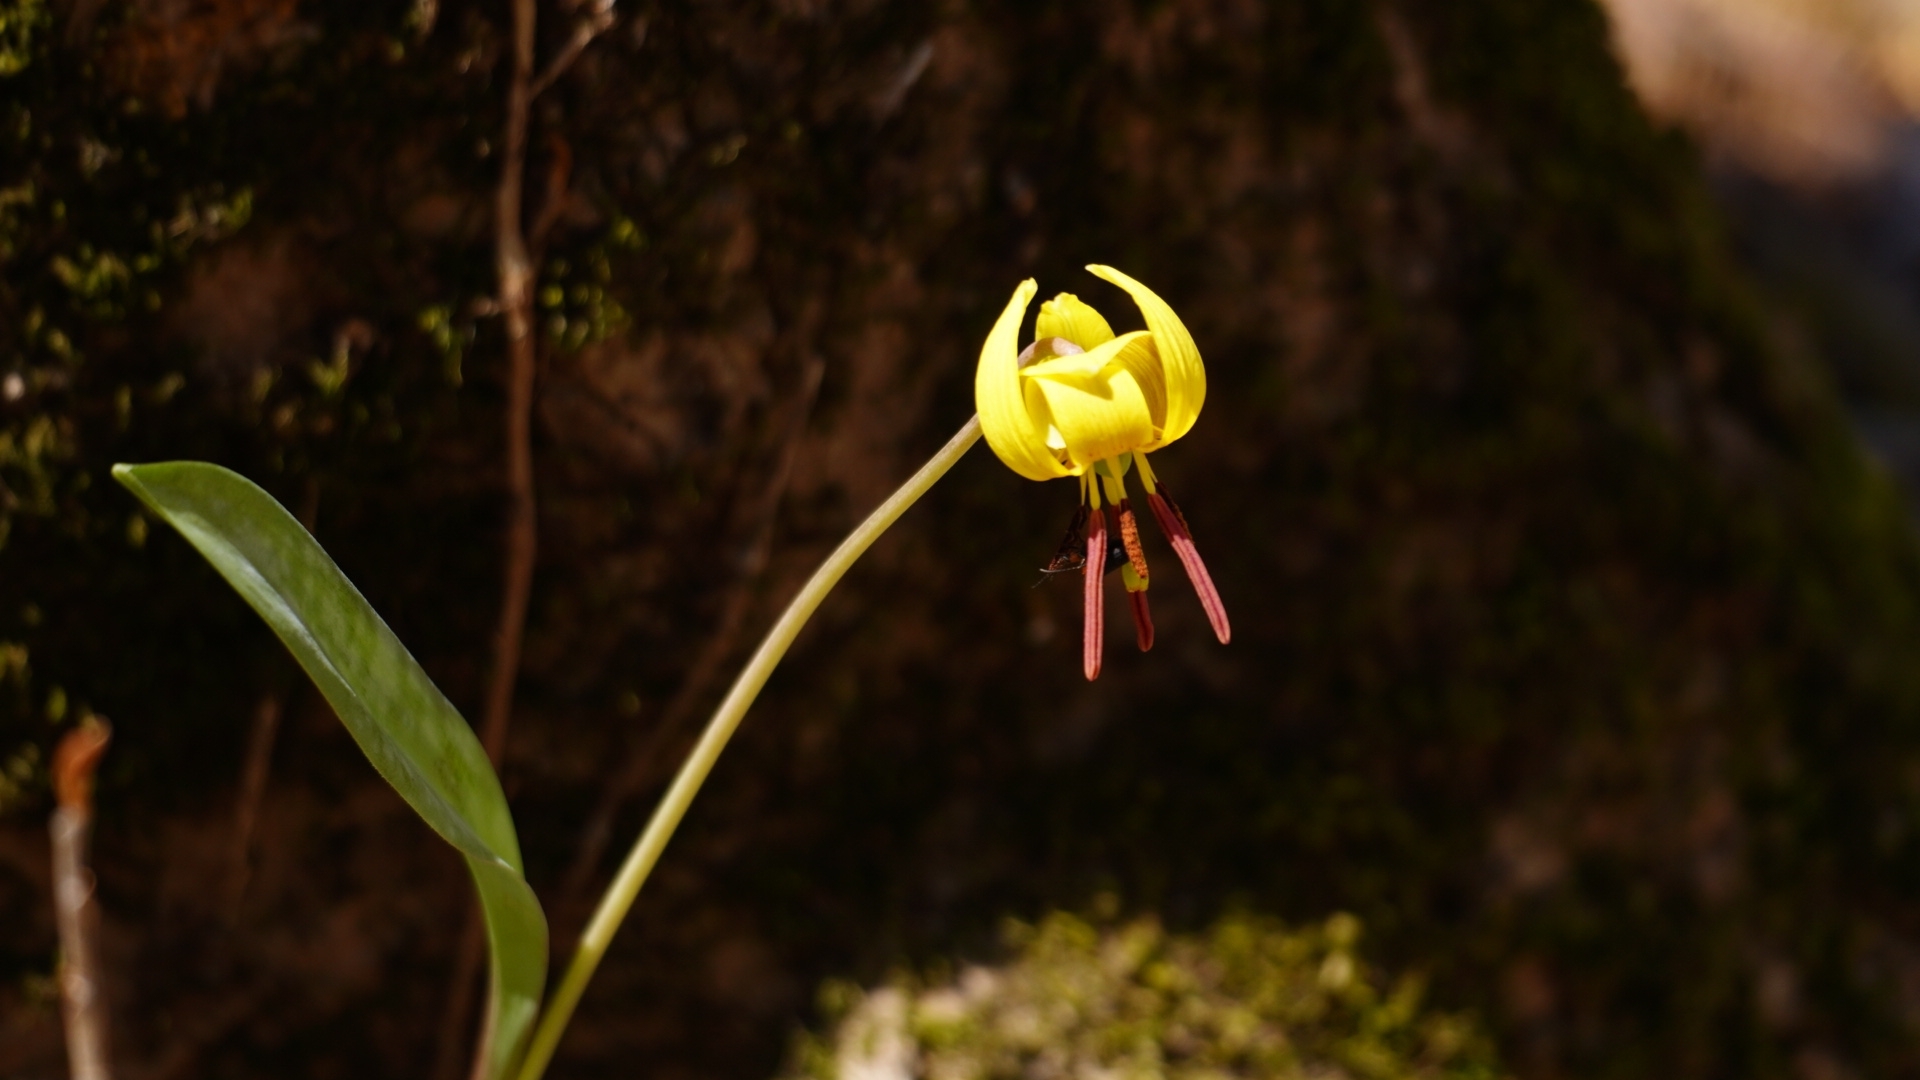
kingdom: Plantae
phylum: Tracheophyta
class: Liliopsida
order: Liliales
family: Liliaceae
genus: Erythronium
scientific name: Erythronium americanum
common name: Yellow adder's-tongue
